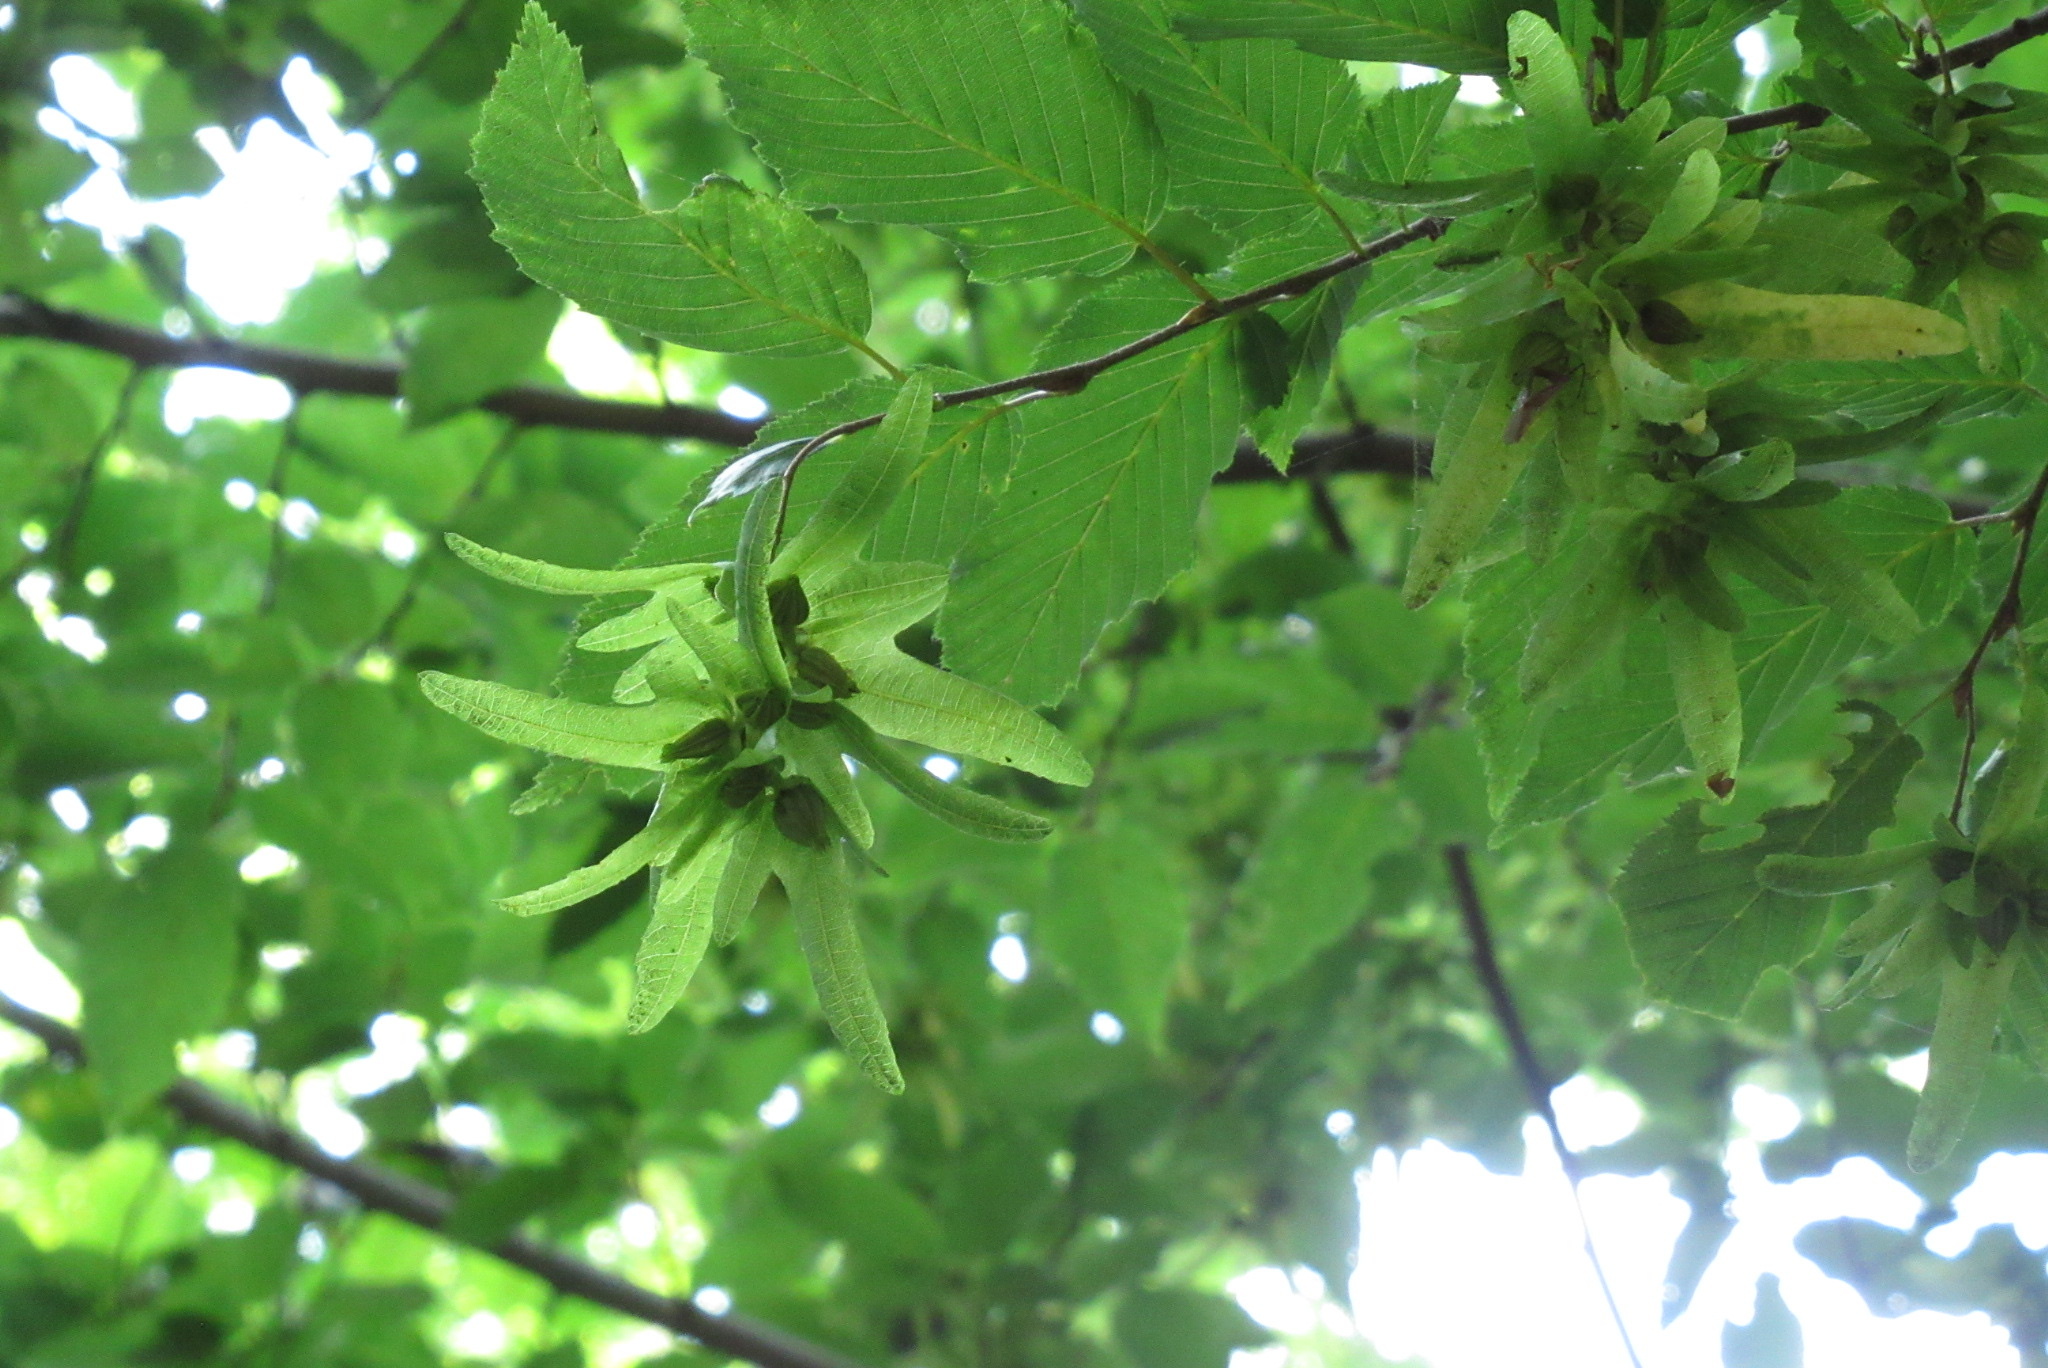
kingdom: Plantae
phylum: Tracheophyta
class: Magnoliopsida
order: Fagales
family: Betulaceae
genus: Carpinus
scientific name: Carpinus betulus
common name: Hornbeam
